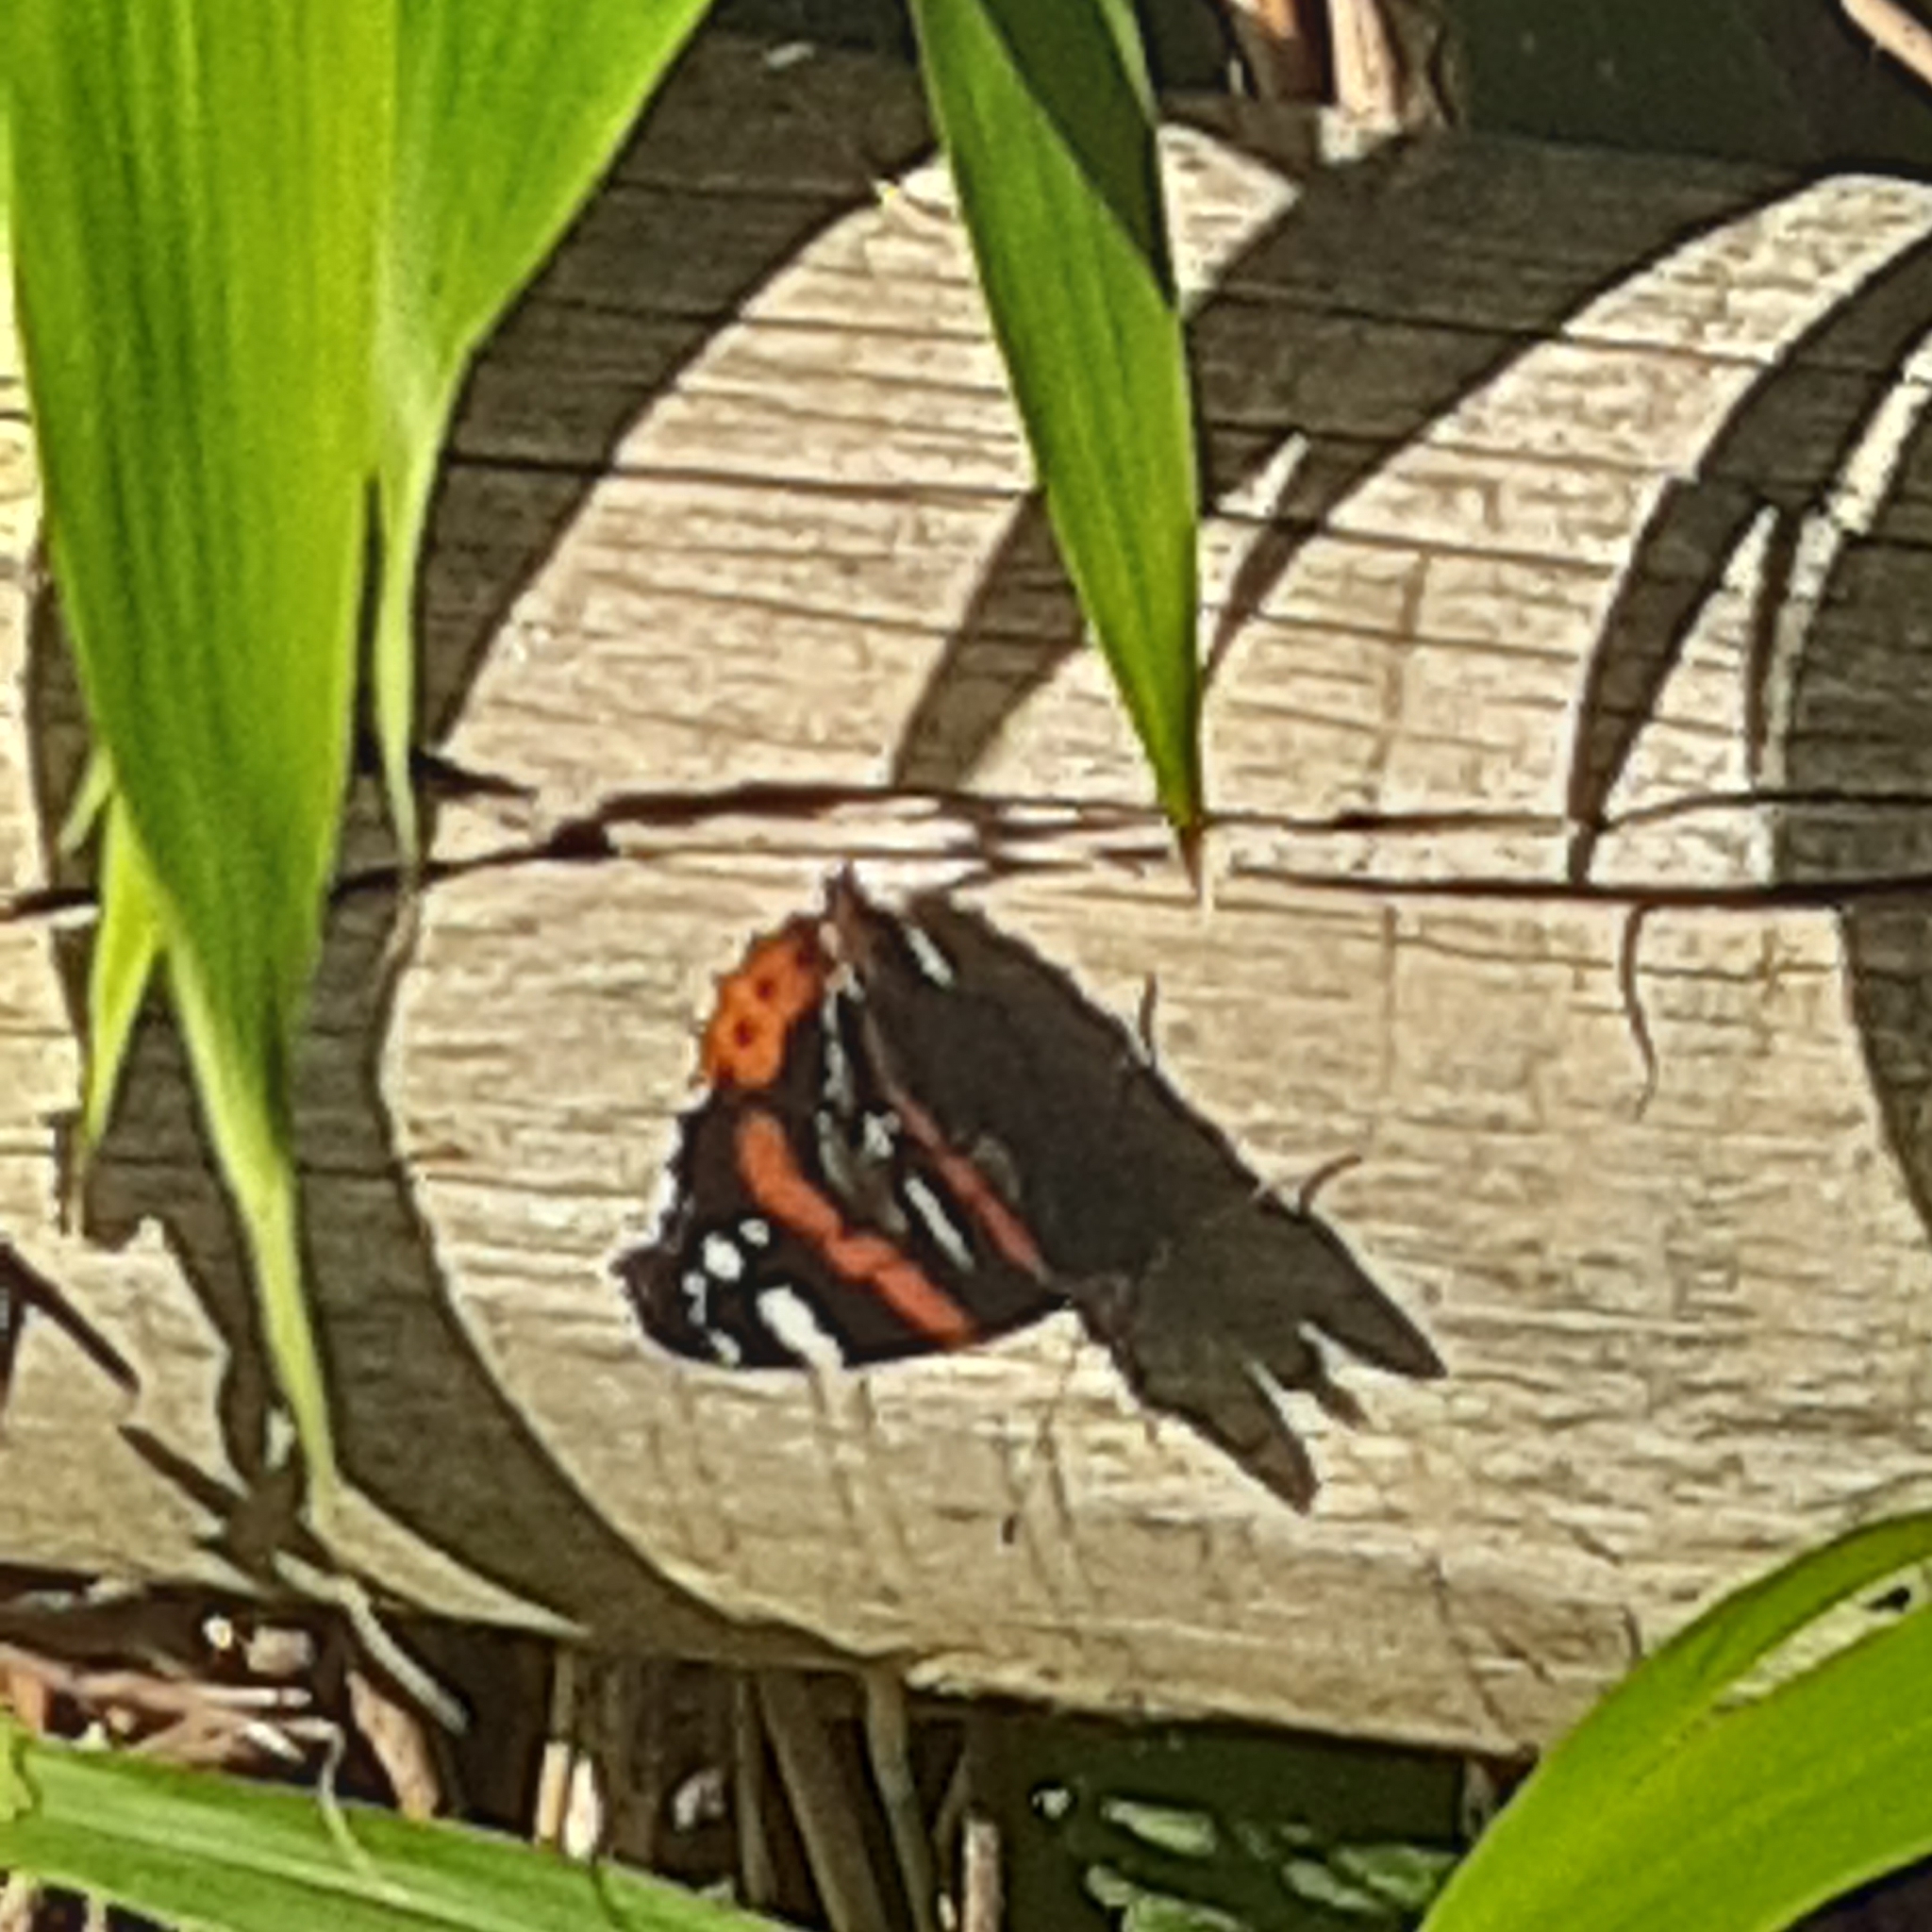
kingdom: Animalia
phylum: Arthropoda
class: Insecta
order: Lepidoptera
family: Nymphalidae
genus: Vanessa
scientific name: Vanessa atalanta
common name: Red admiral
